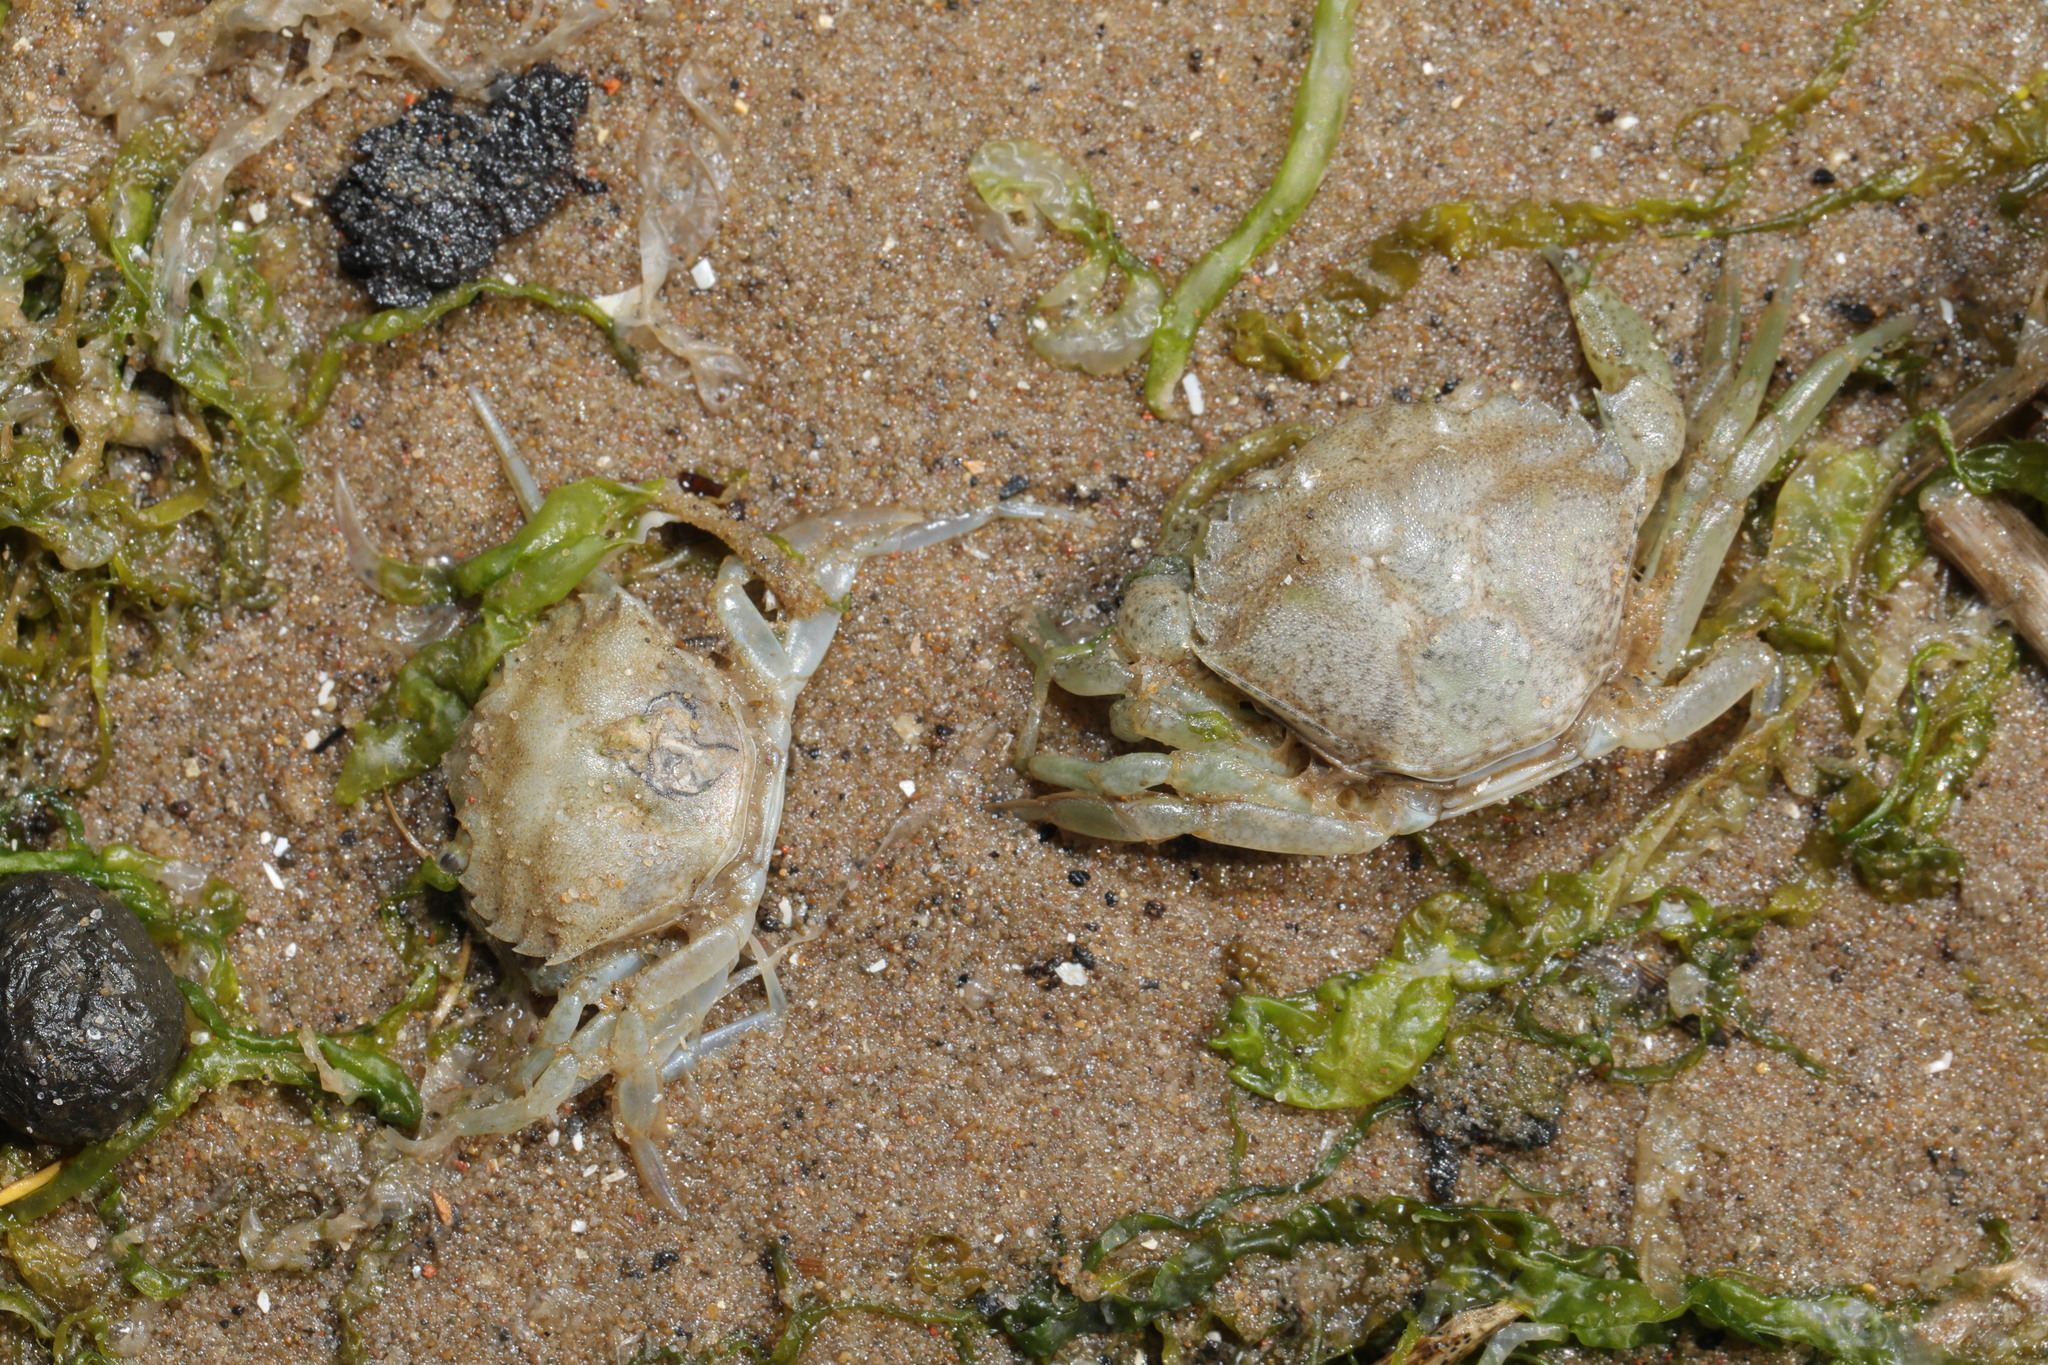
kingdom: Animalia
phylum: Arthropoda
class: Malacostraca
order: Decapoda
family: Carcinidae
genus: Carcinus
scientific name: Carcinus maenas
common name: European green crab
